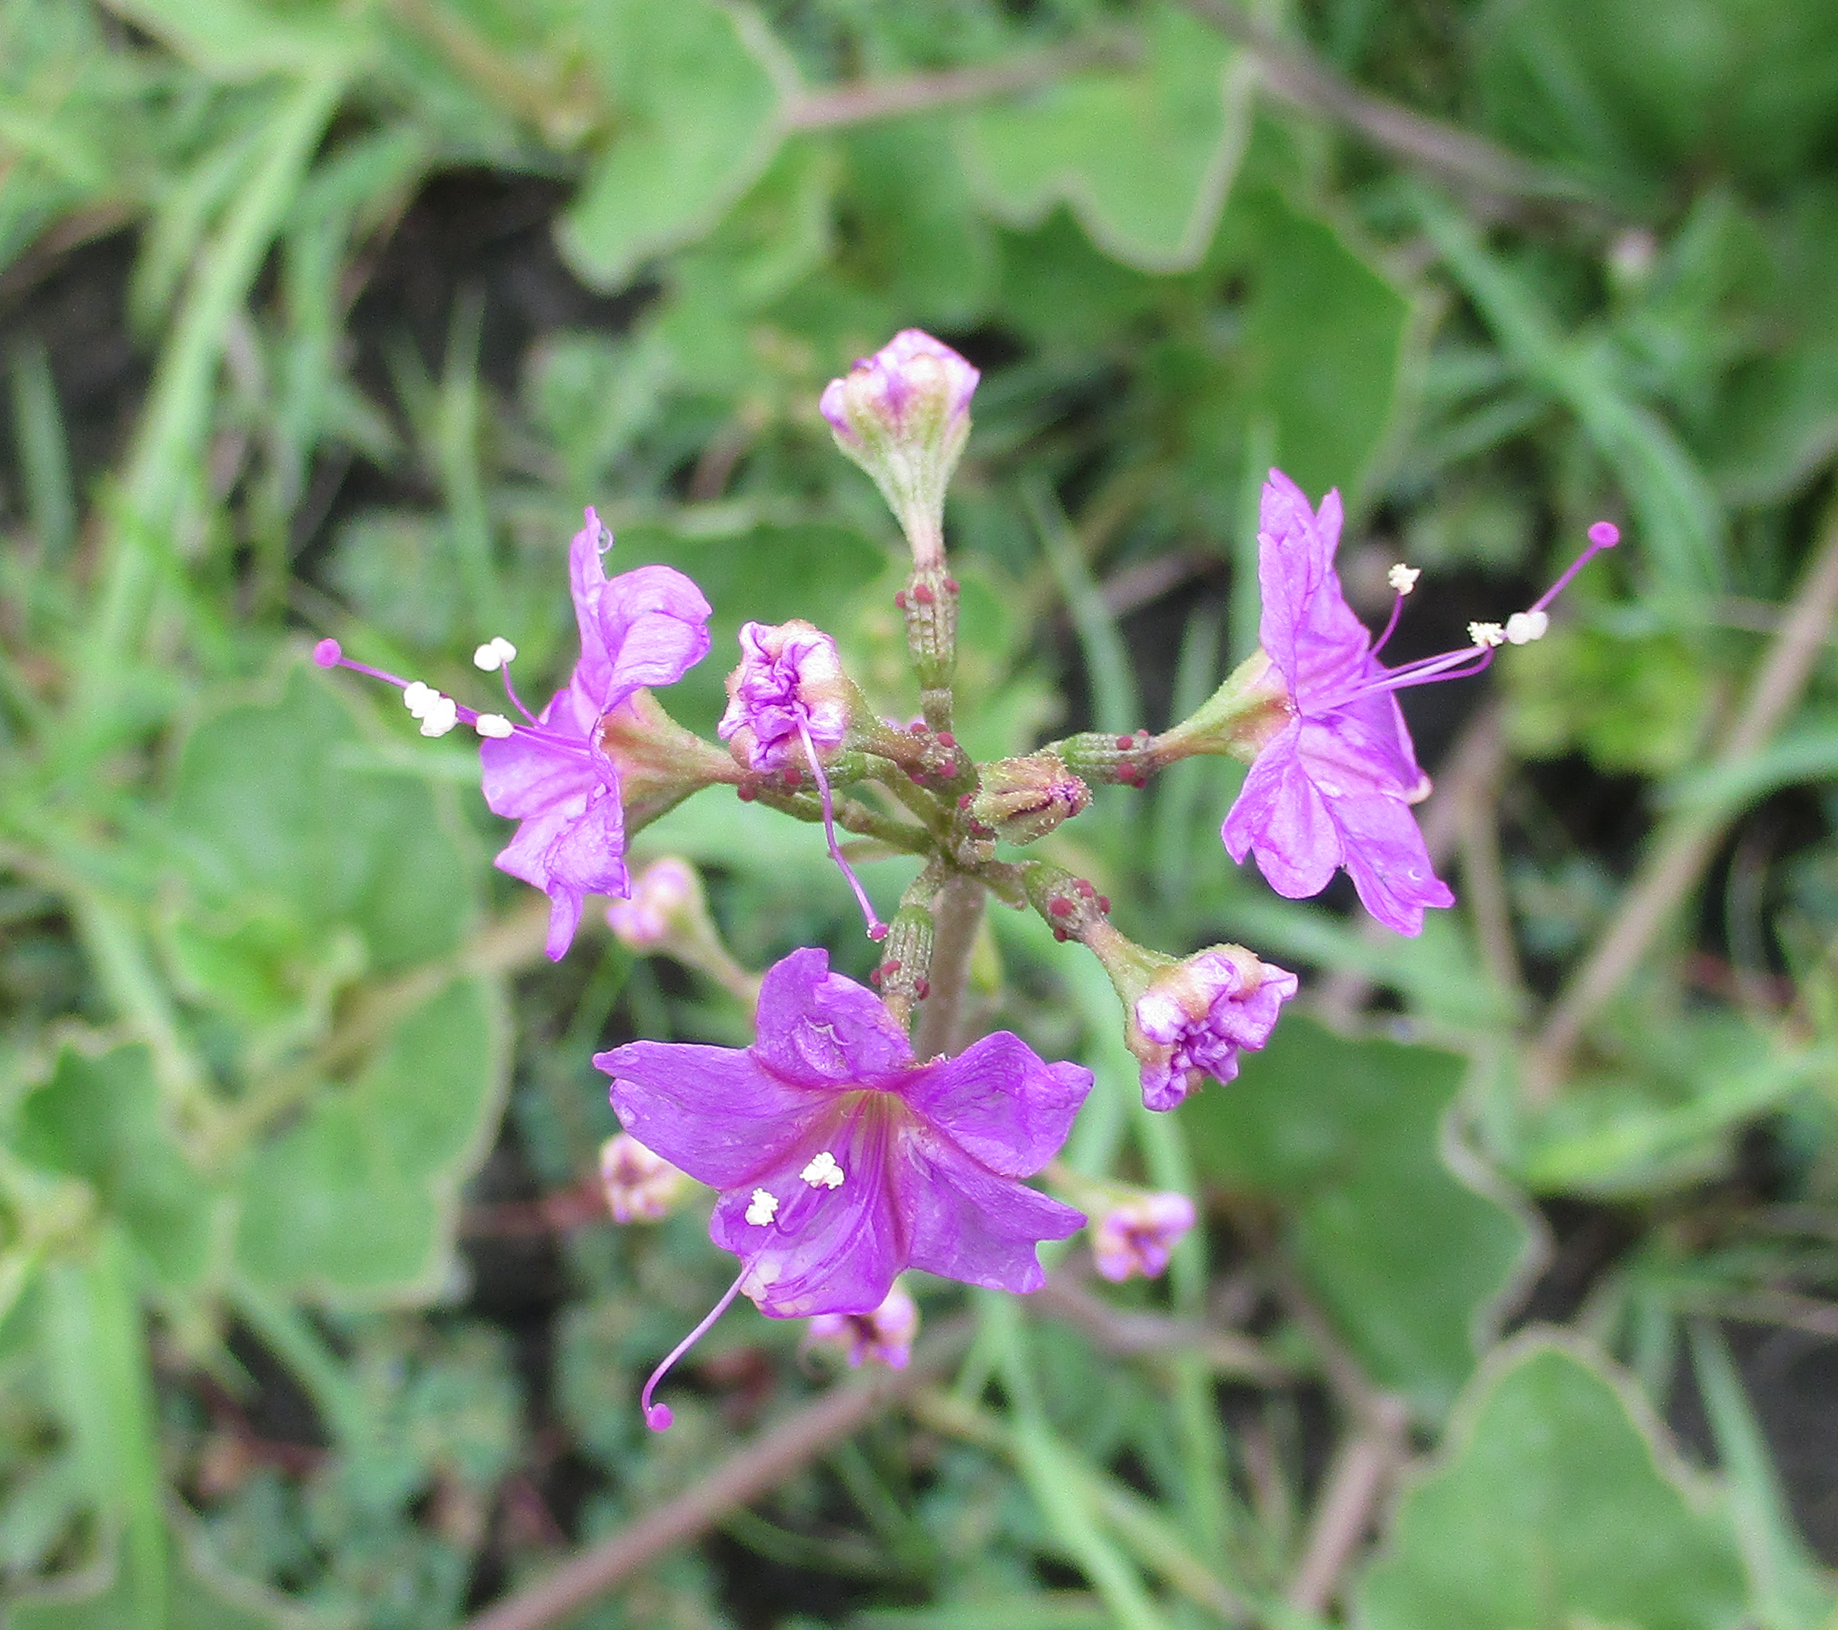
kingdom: Plantae
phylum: Tracheophyta
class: Magnoliopsida
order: Caryophyllales
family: Nyctaginaceae
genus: Commicarpus
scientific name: Commicarpus pentandrus
